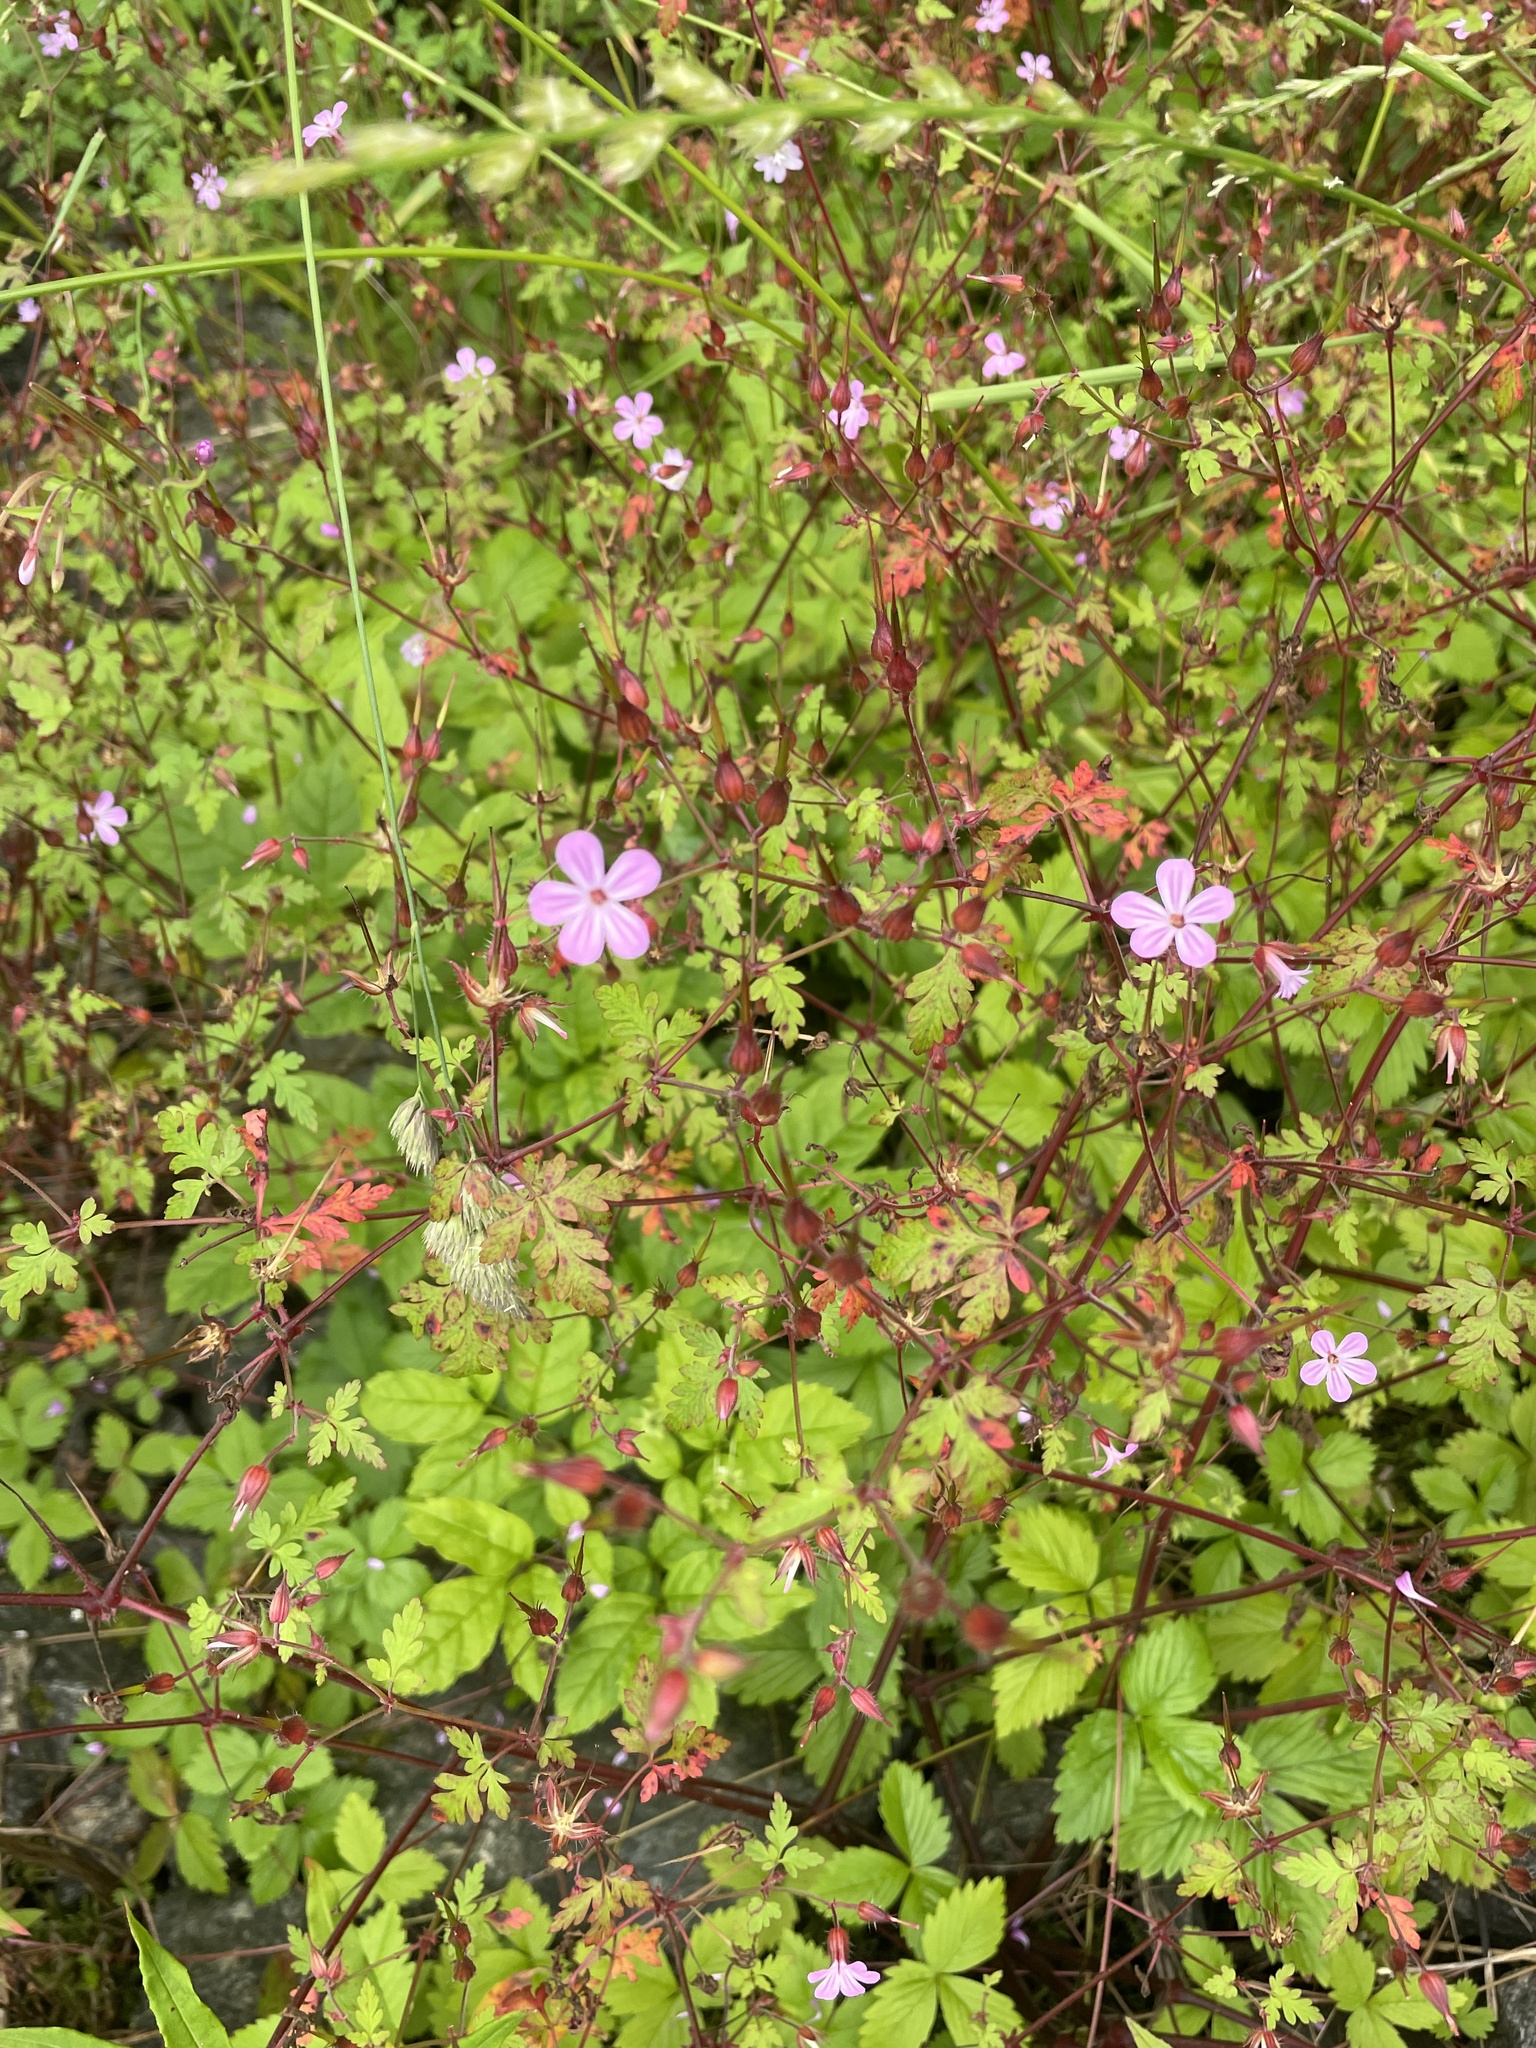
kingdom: Plantae
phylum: Tracheophyta
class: Magnoliopsida
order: Geraniales
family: Geraniaceae
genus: Geranium
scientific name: Geranium robertianum
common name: Herb-robert
